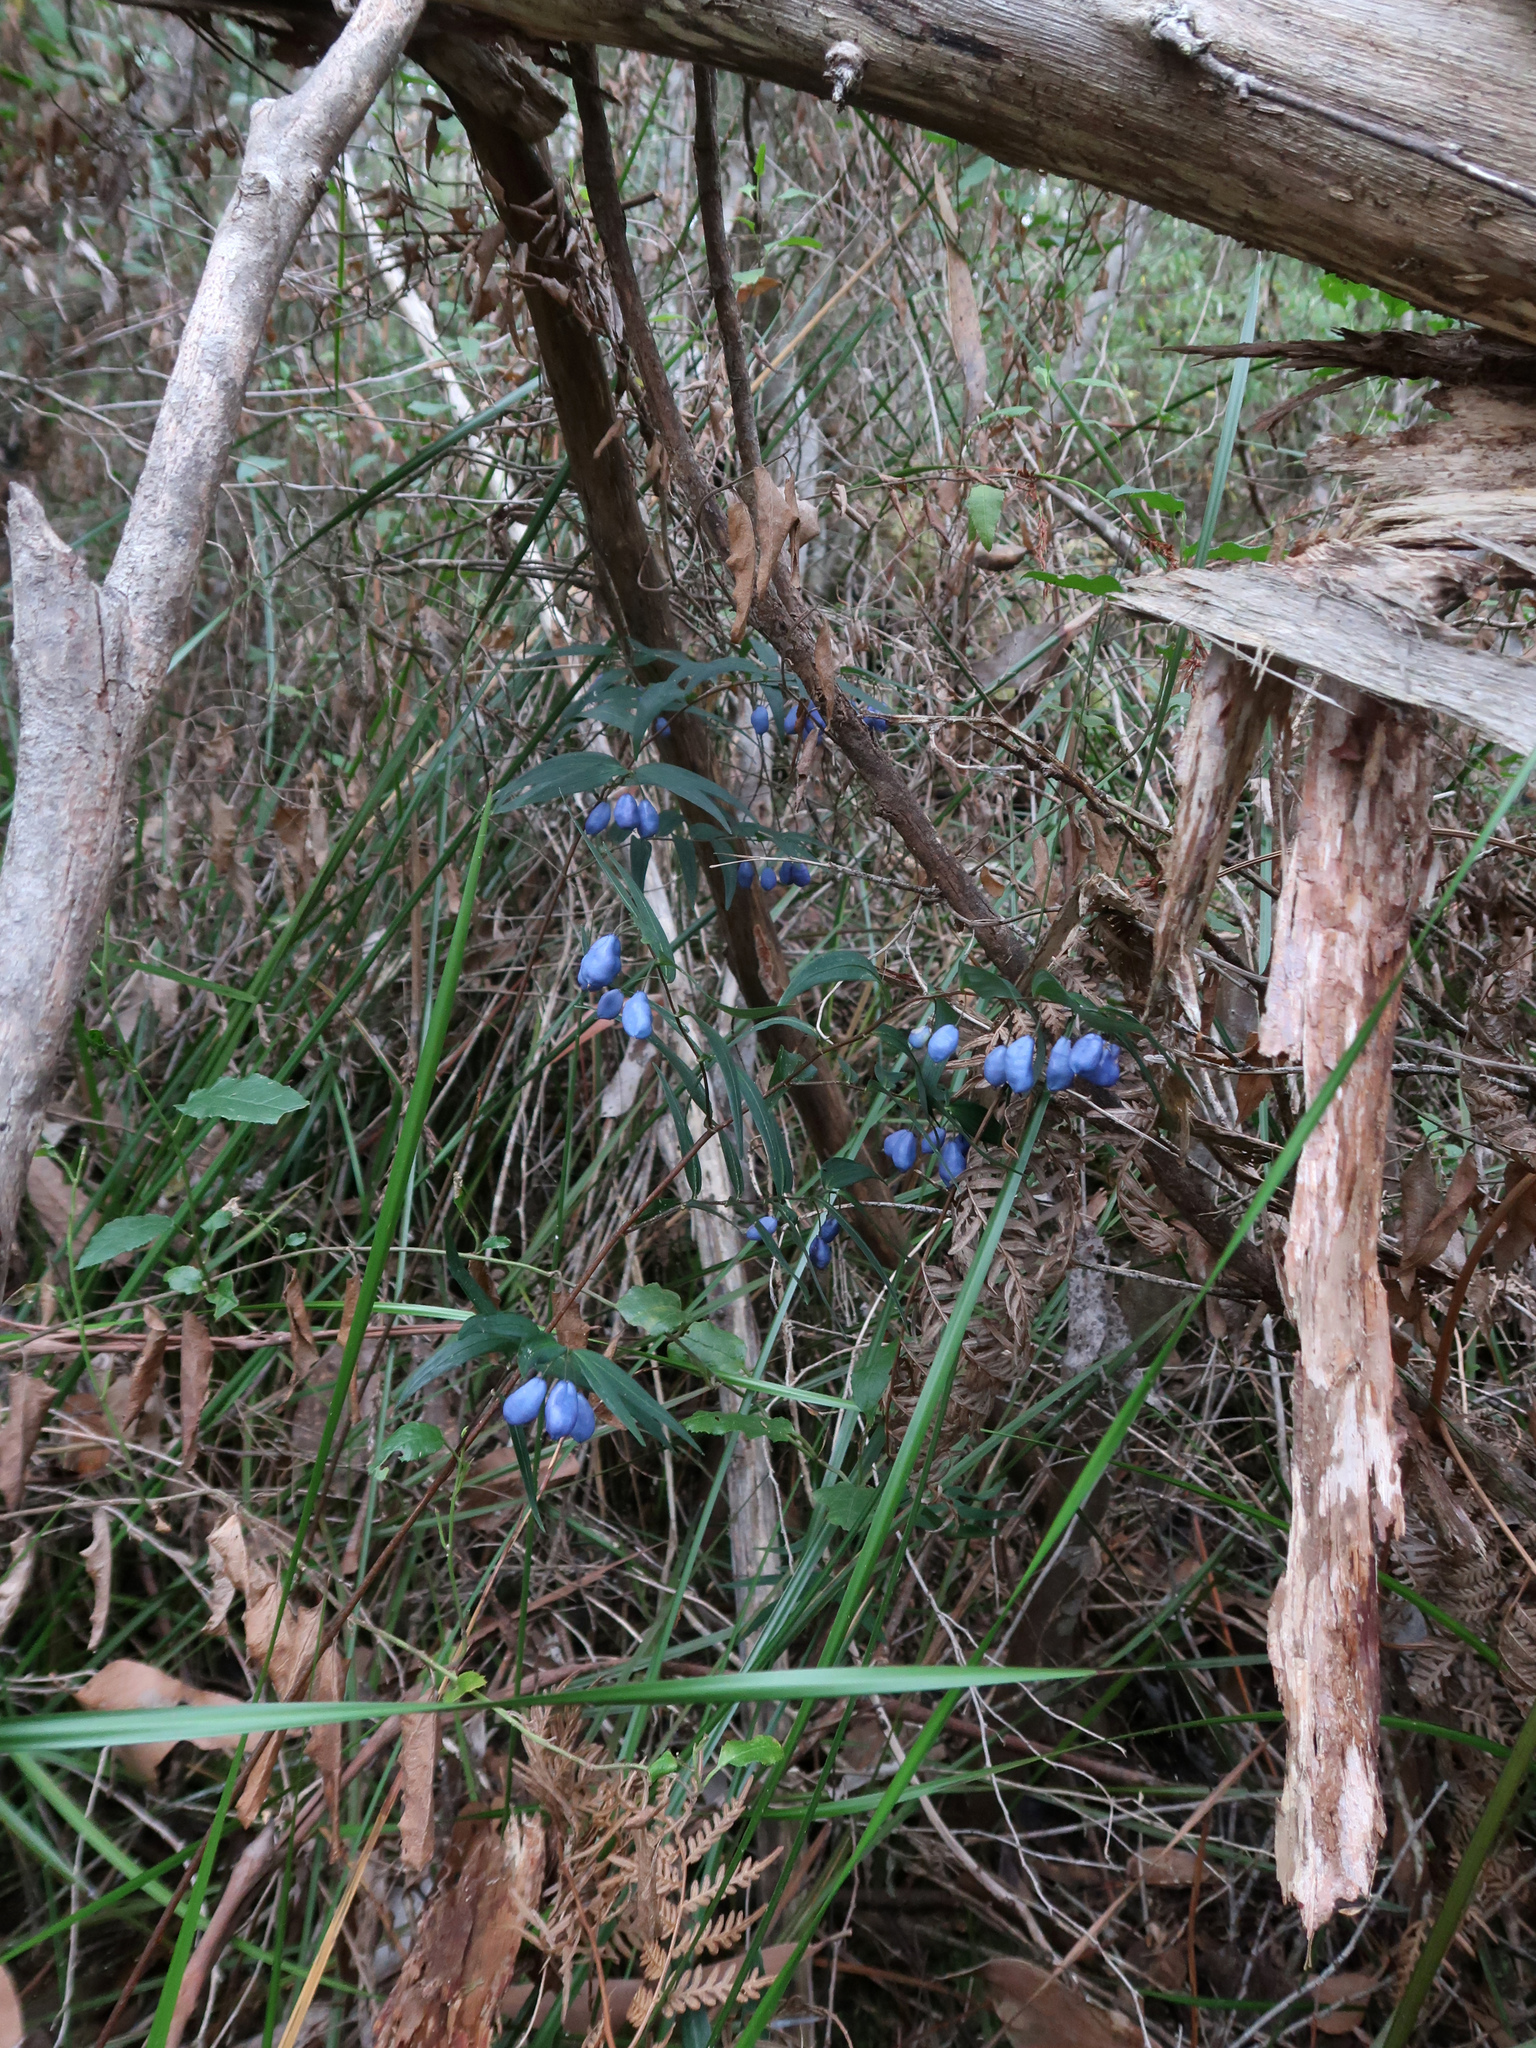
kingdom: Plantae
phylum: Tracheophyta
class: Liliopsida
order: Liliales
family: Alstroemeriaceae
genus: Drymophila
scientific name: Drymophila cyanocarpa
